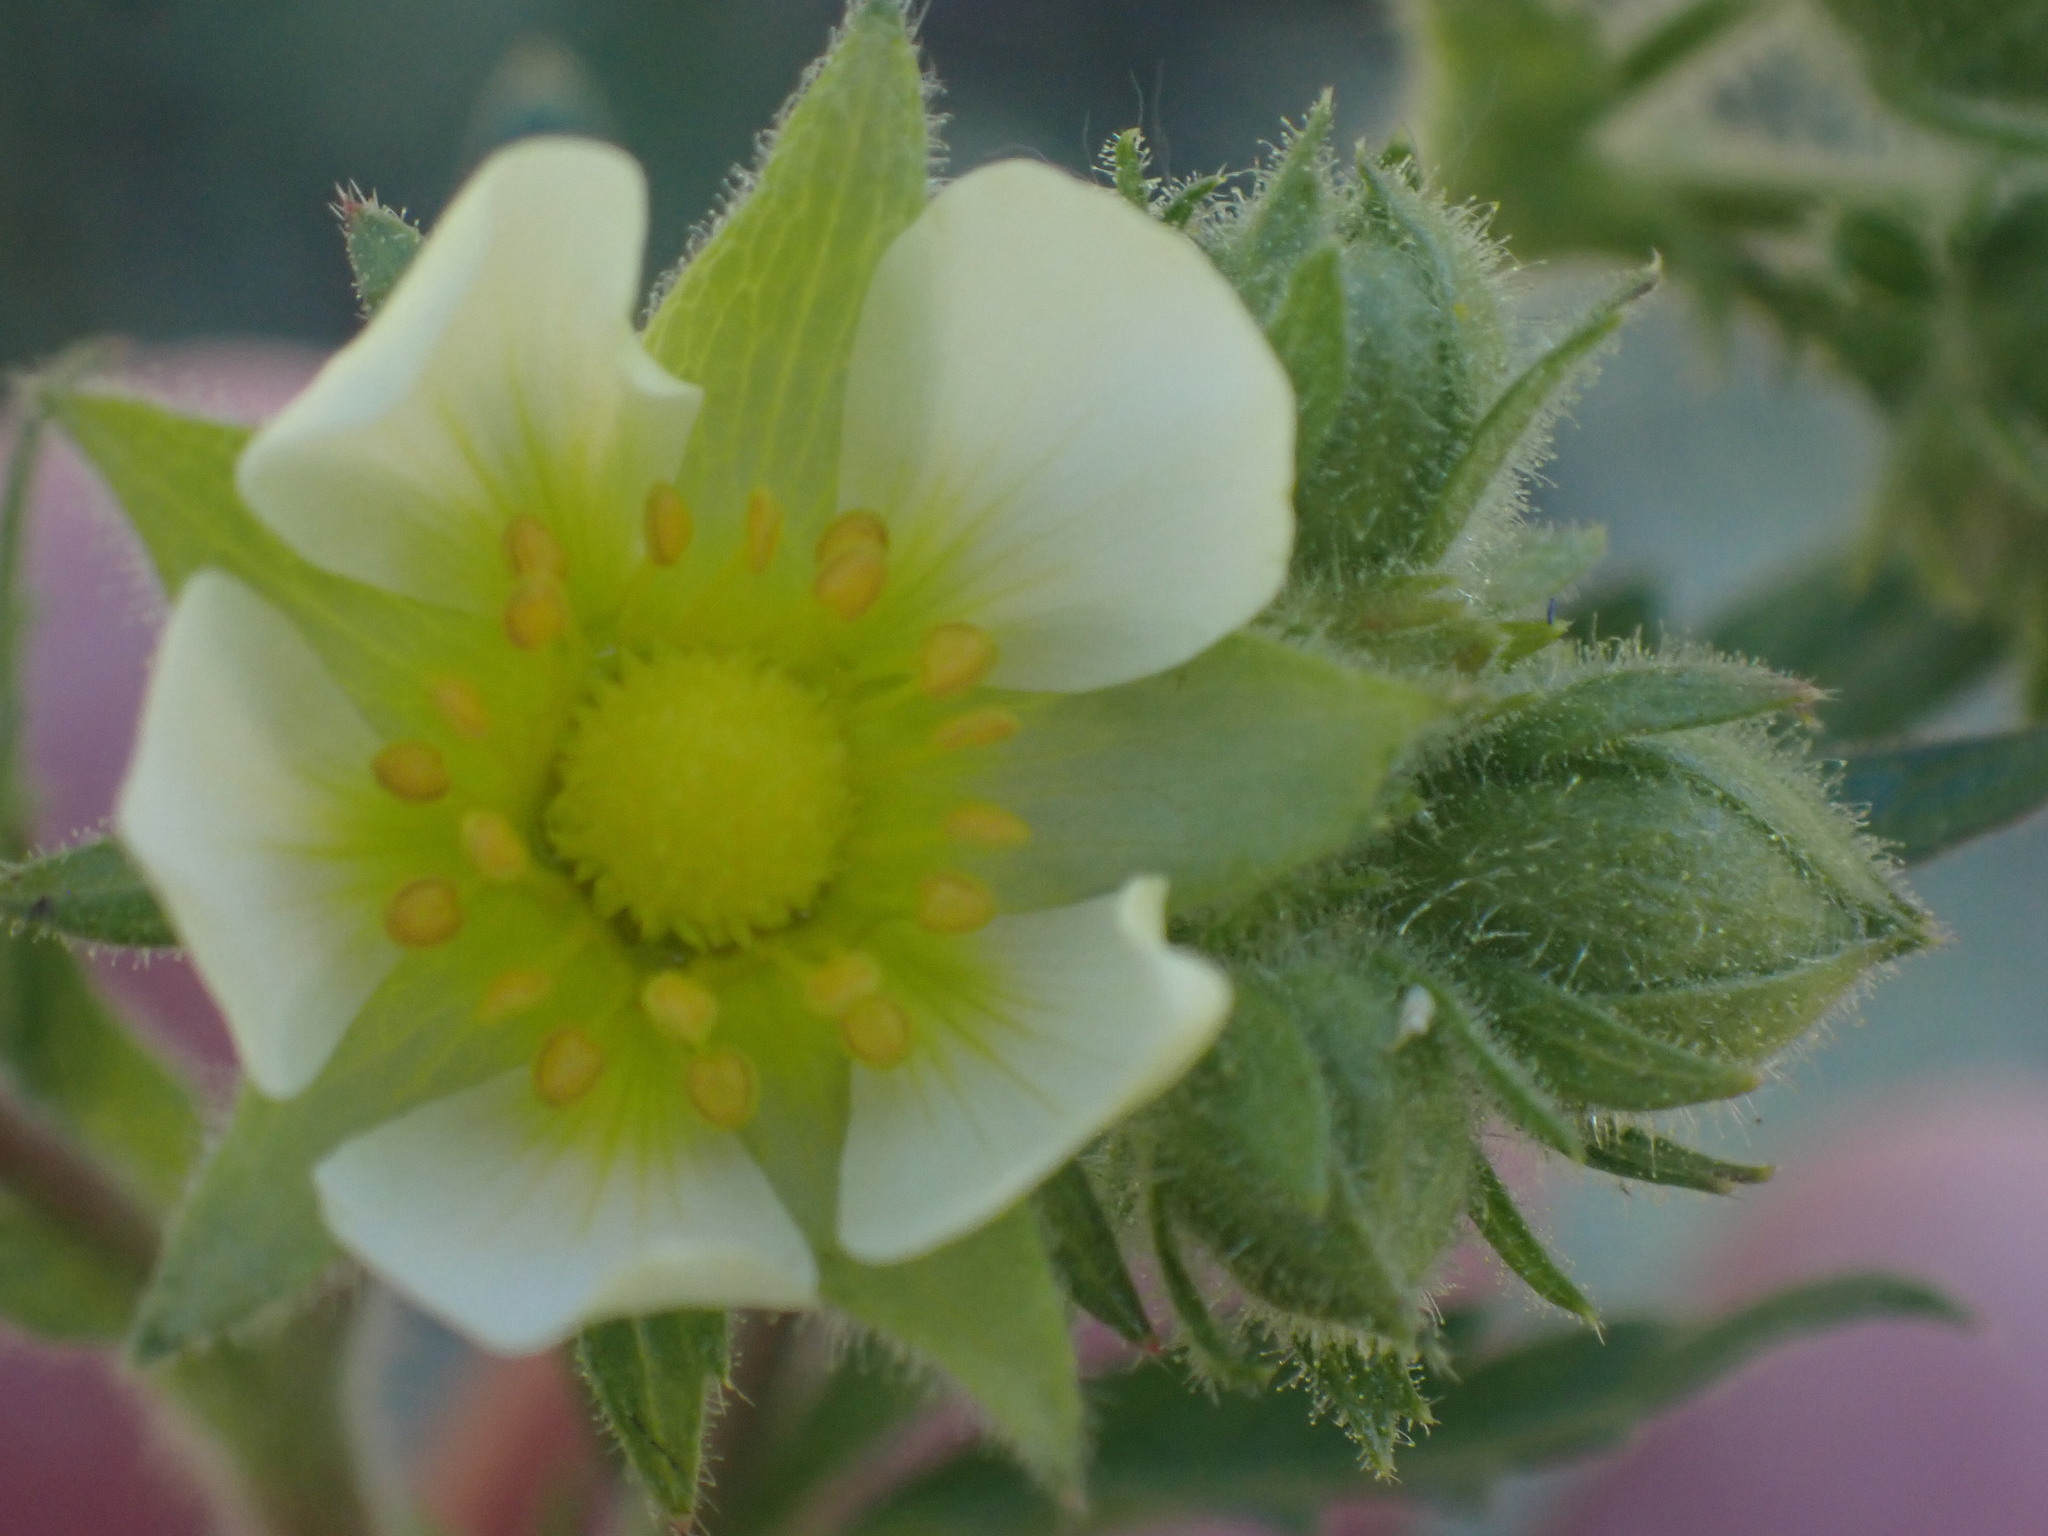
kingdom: Plantae
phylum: Tracheophyta
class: Magnoliopsida
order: Rosales
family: Rosaceae
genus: Drymocallis
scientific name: Drymocallis convallaria
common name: Cream cinquefoil
